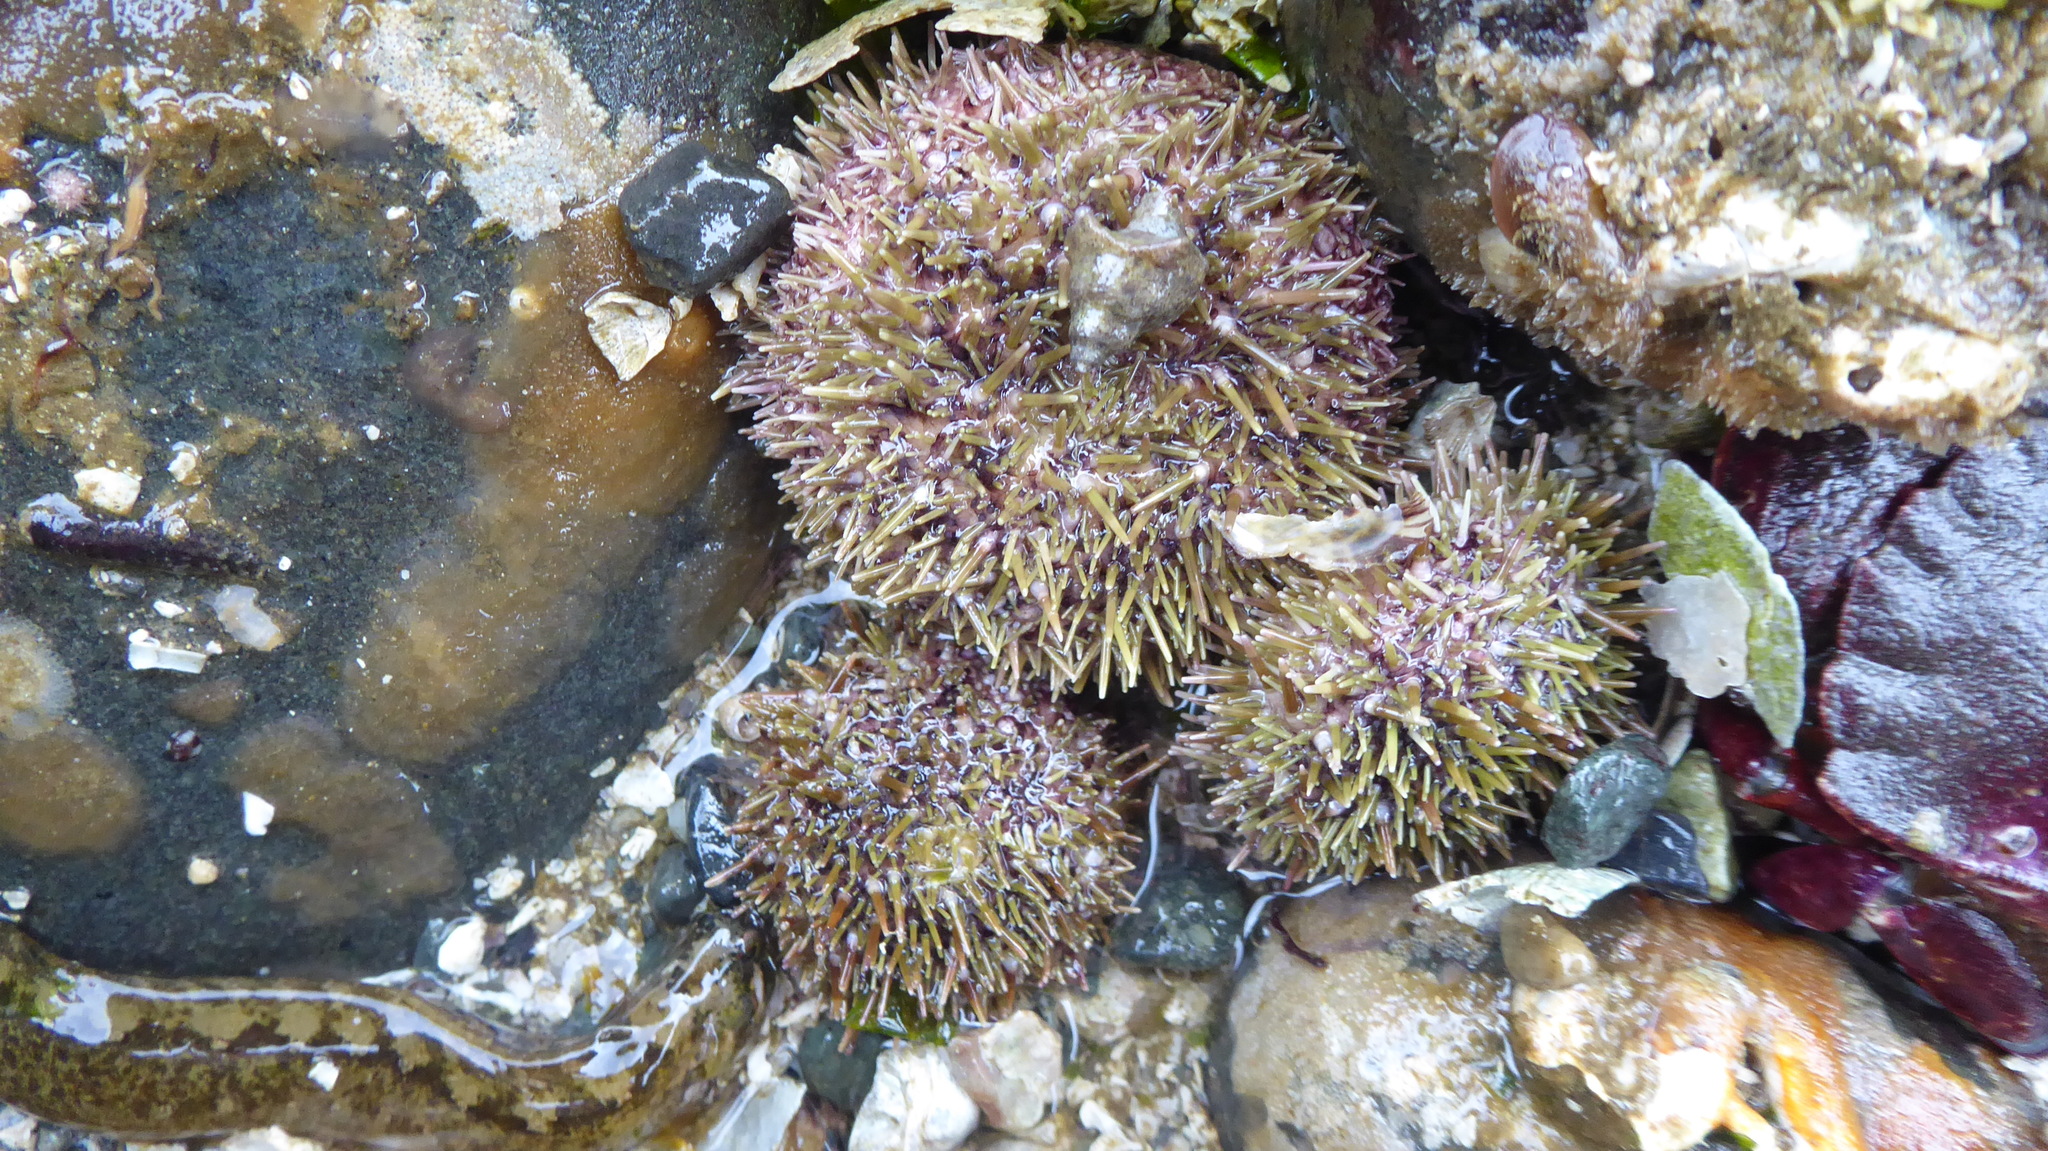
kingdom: Animalia
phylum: Echinodermata
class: Echinoidea
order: Camarodonta
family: Strongylocentrotidae
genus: Strongylocentrotus
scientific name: Strongylocentrotus droebachiensis
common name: Northern sea urchin
